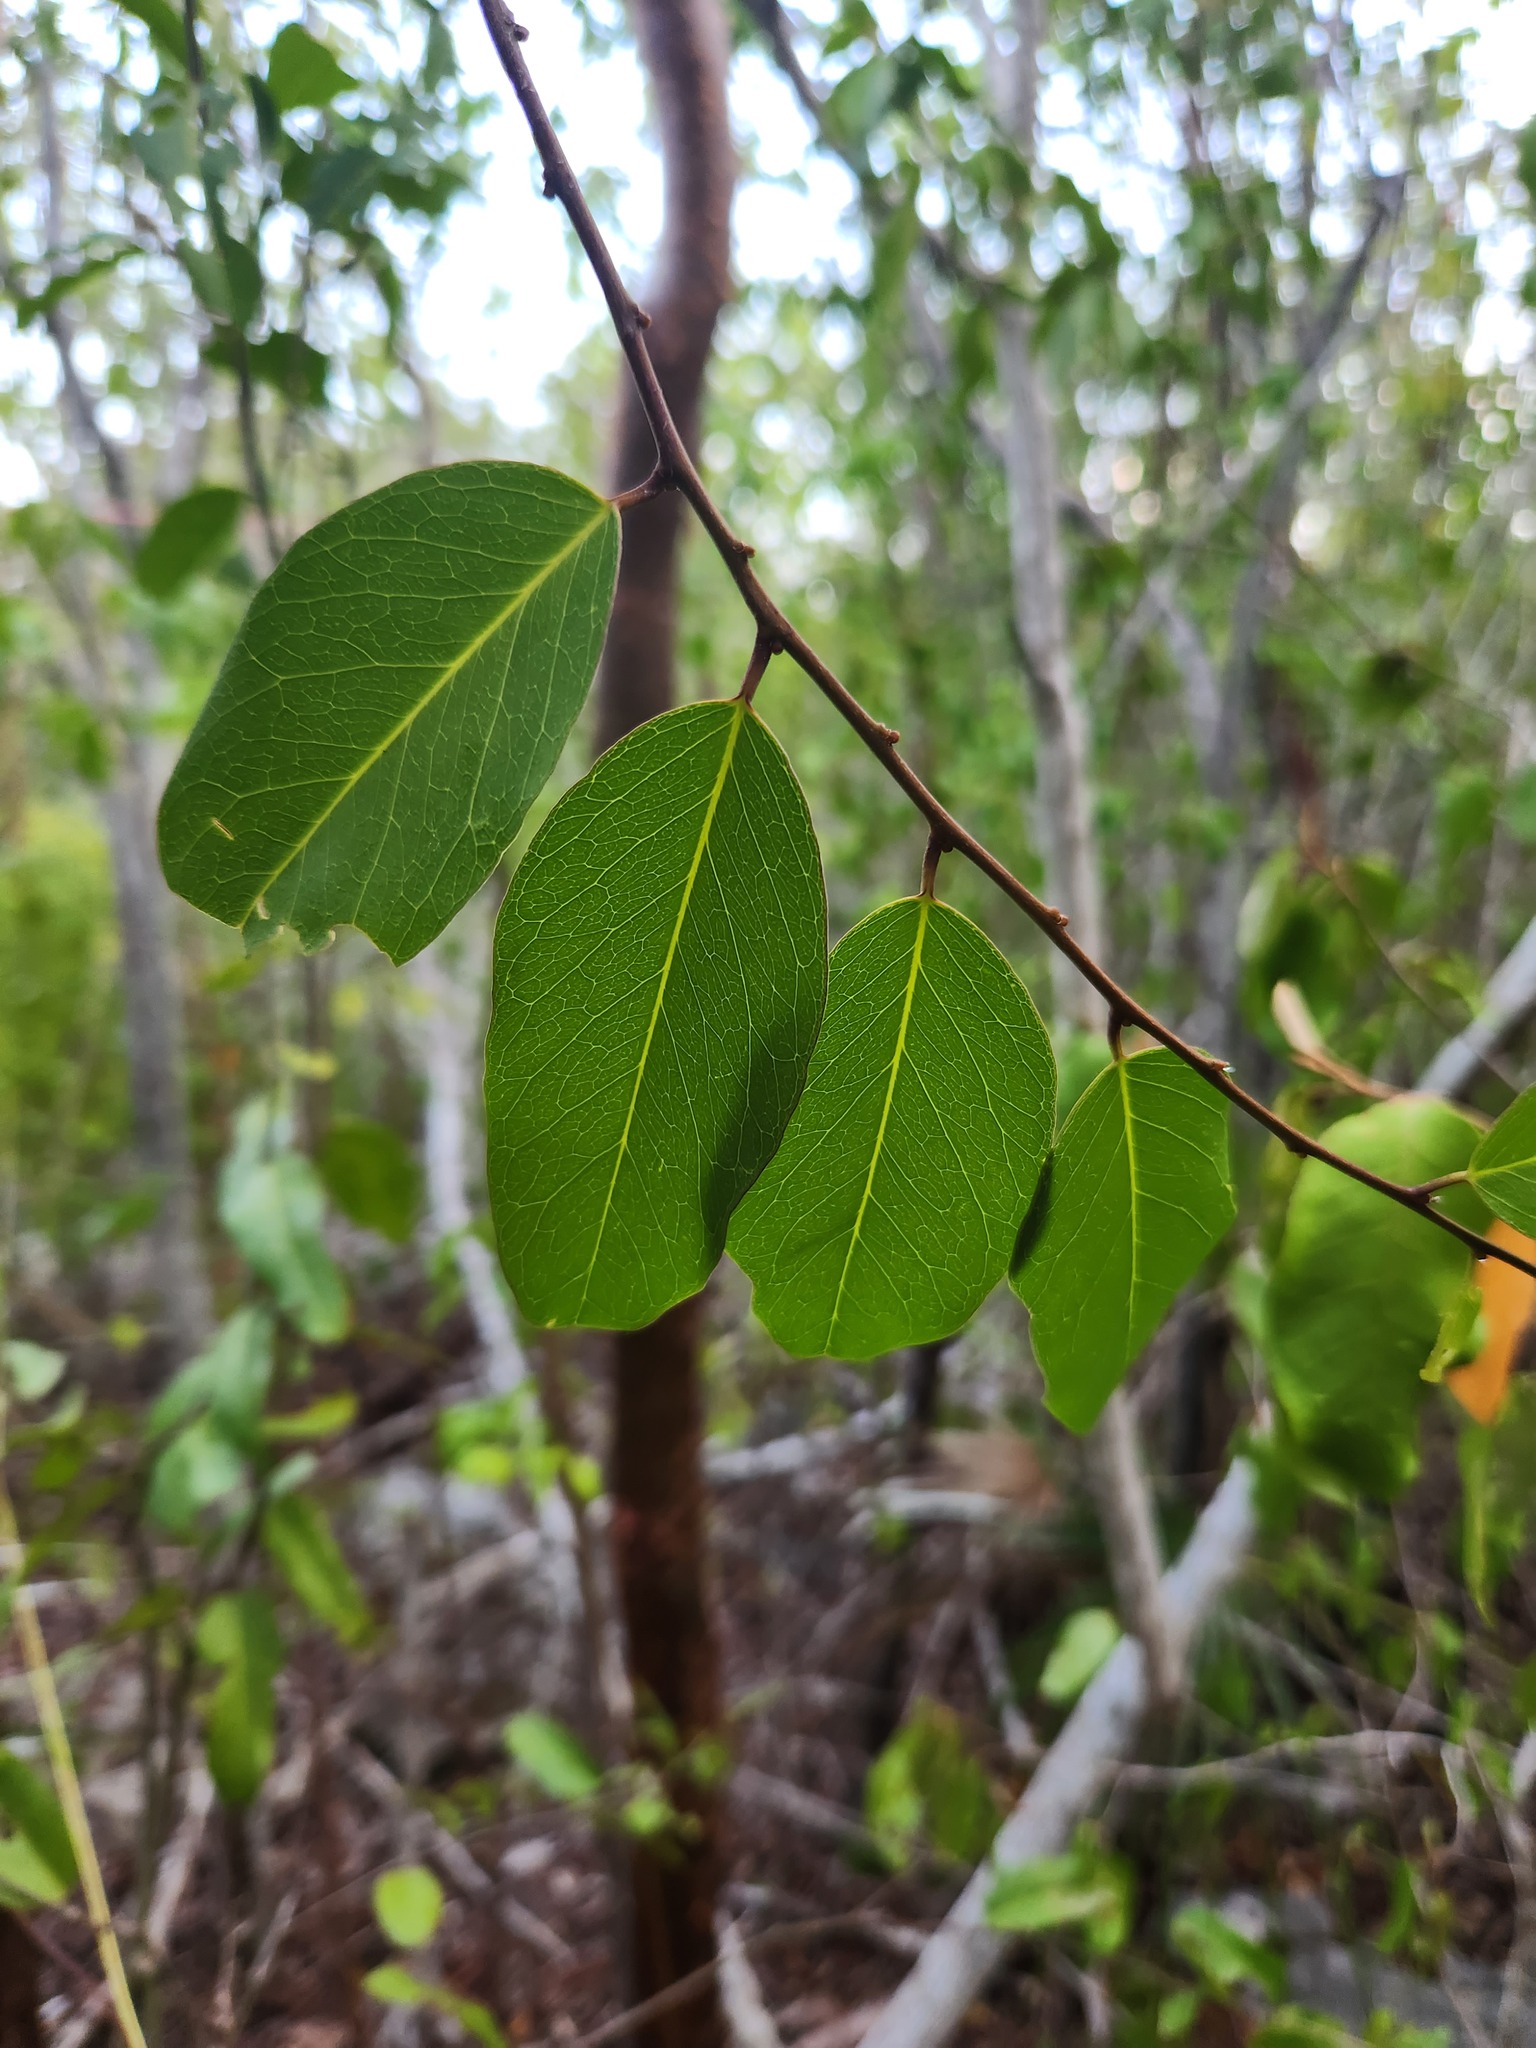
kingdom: Plantae
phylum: Tracheophyta
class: Magnoliopsida
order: Brassicales
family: Capparaceae
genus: Cynophalla
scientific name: Cynophalla flexuosa
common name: Capertree
